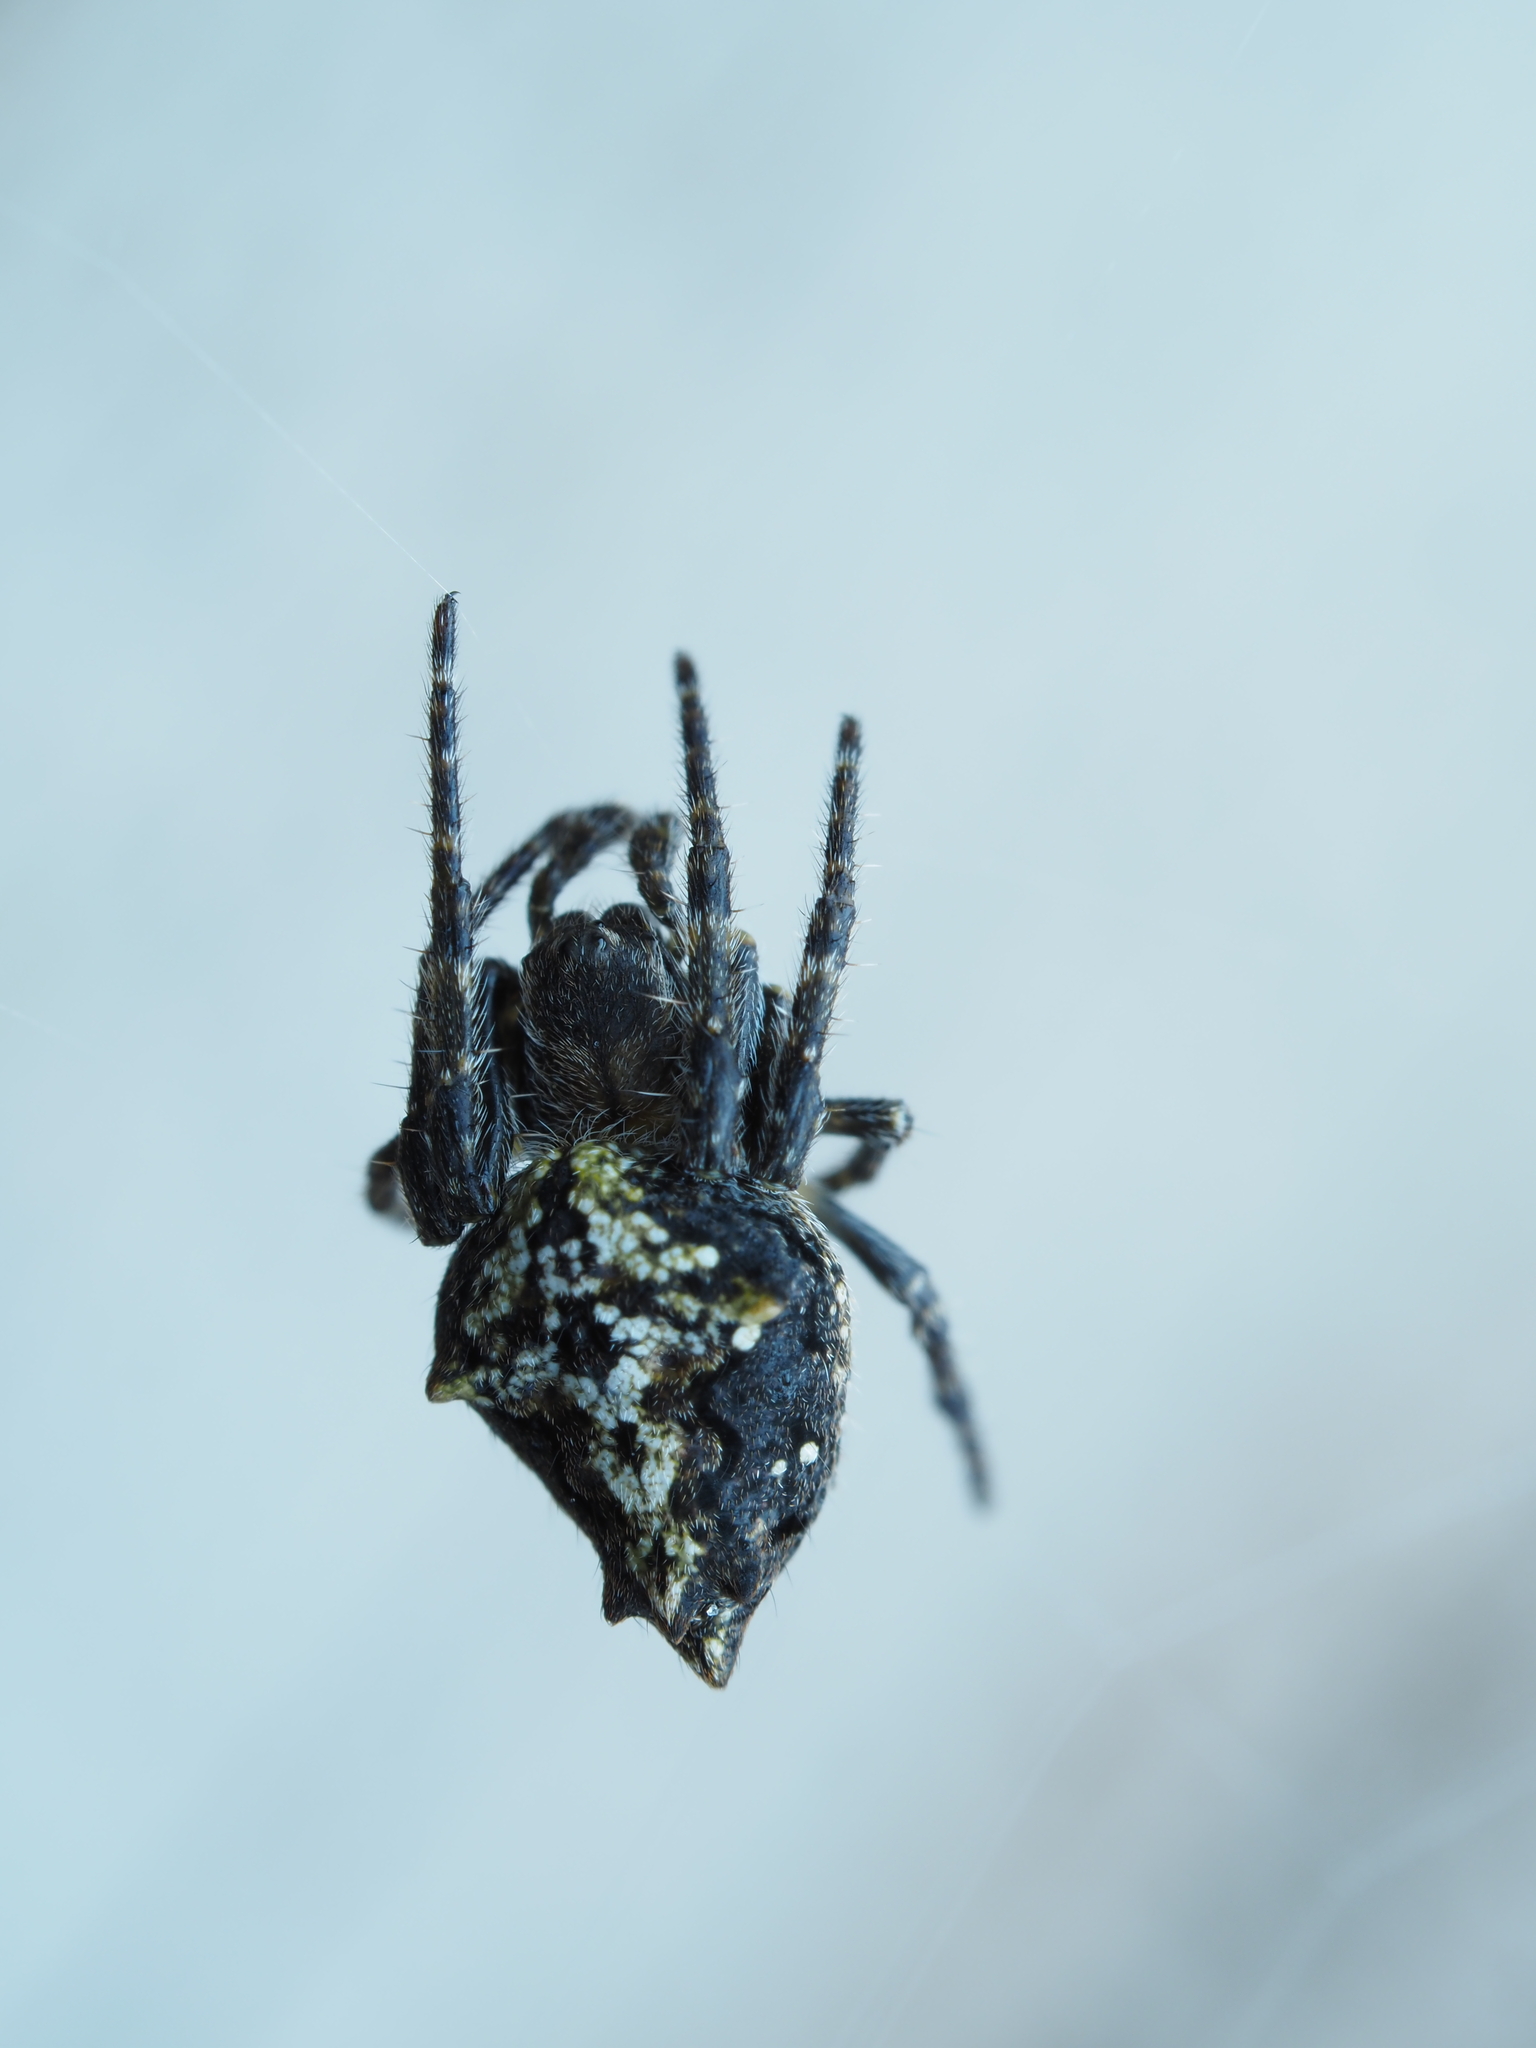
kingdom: Animalia
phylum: Arthropoda
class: Arachnida
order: Araneae
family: Araneidae
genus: Eriophora
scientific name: Eriophora pustulosa
